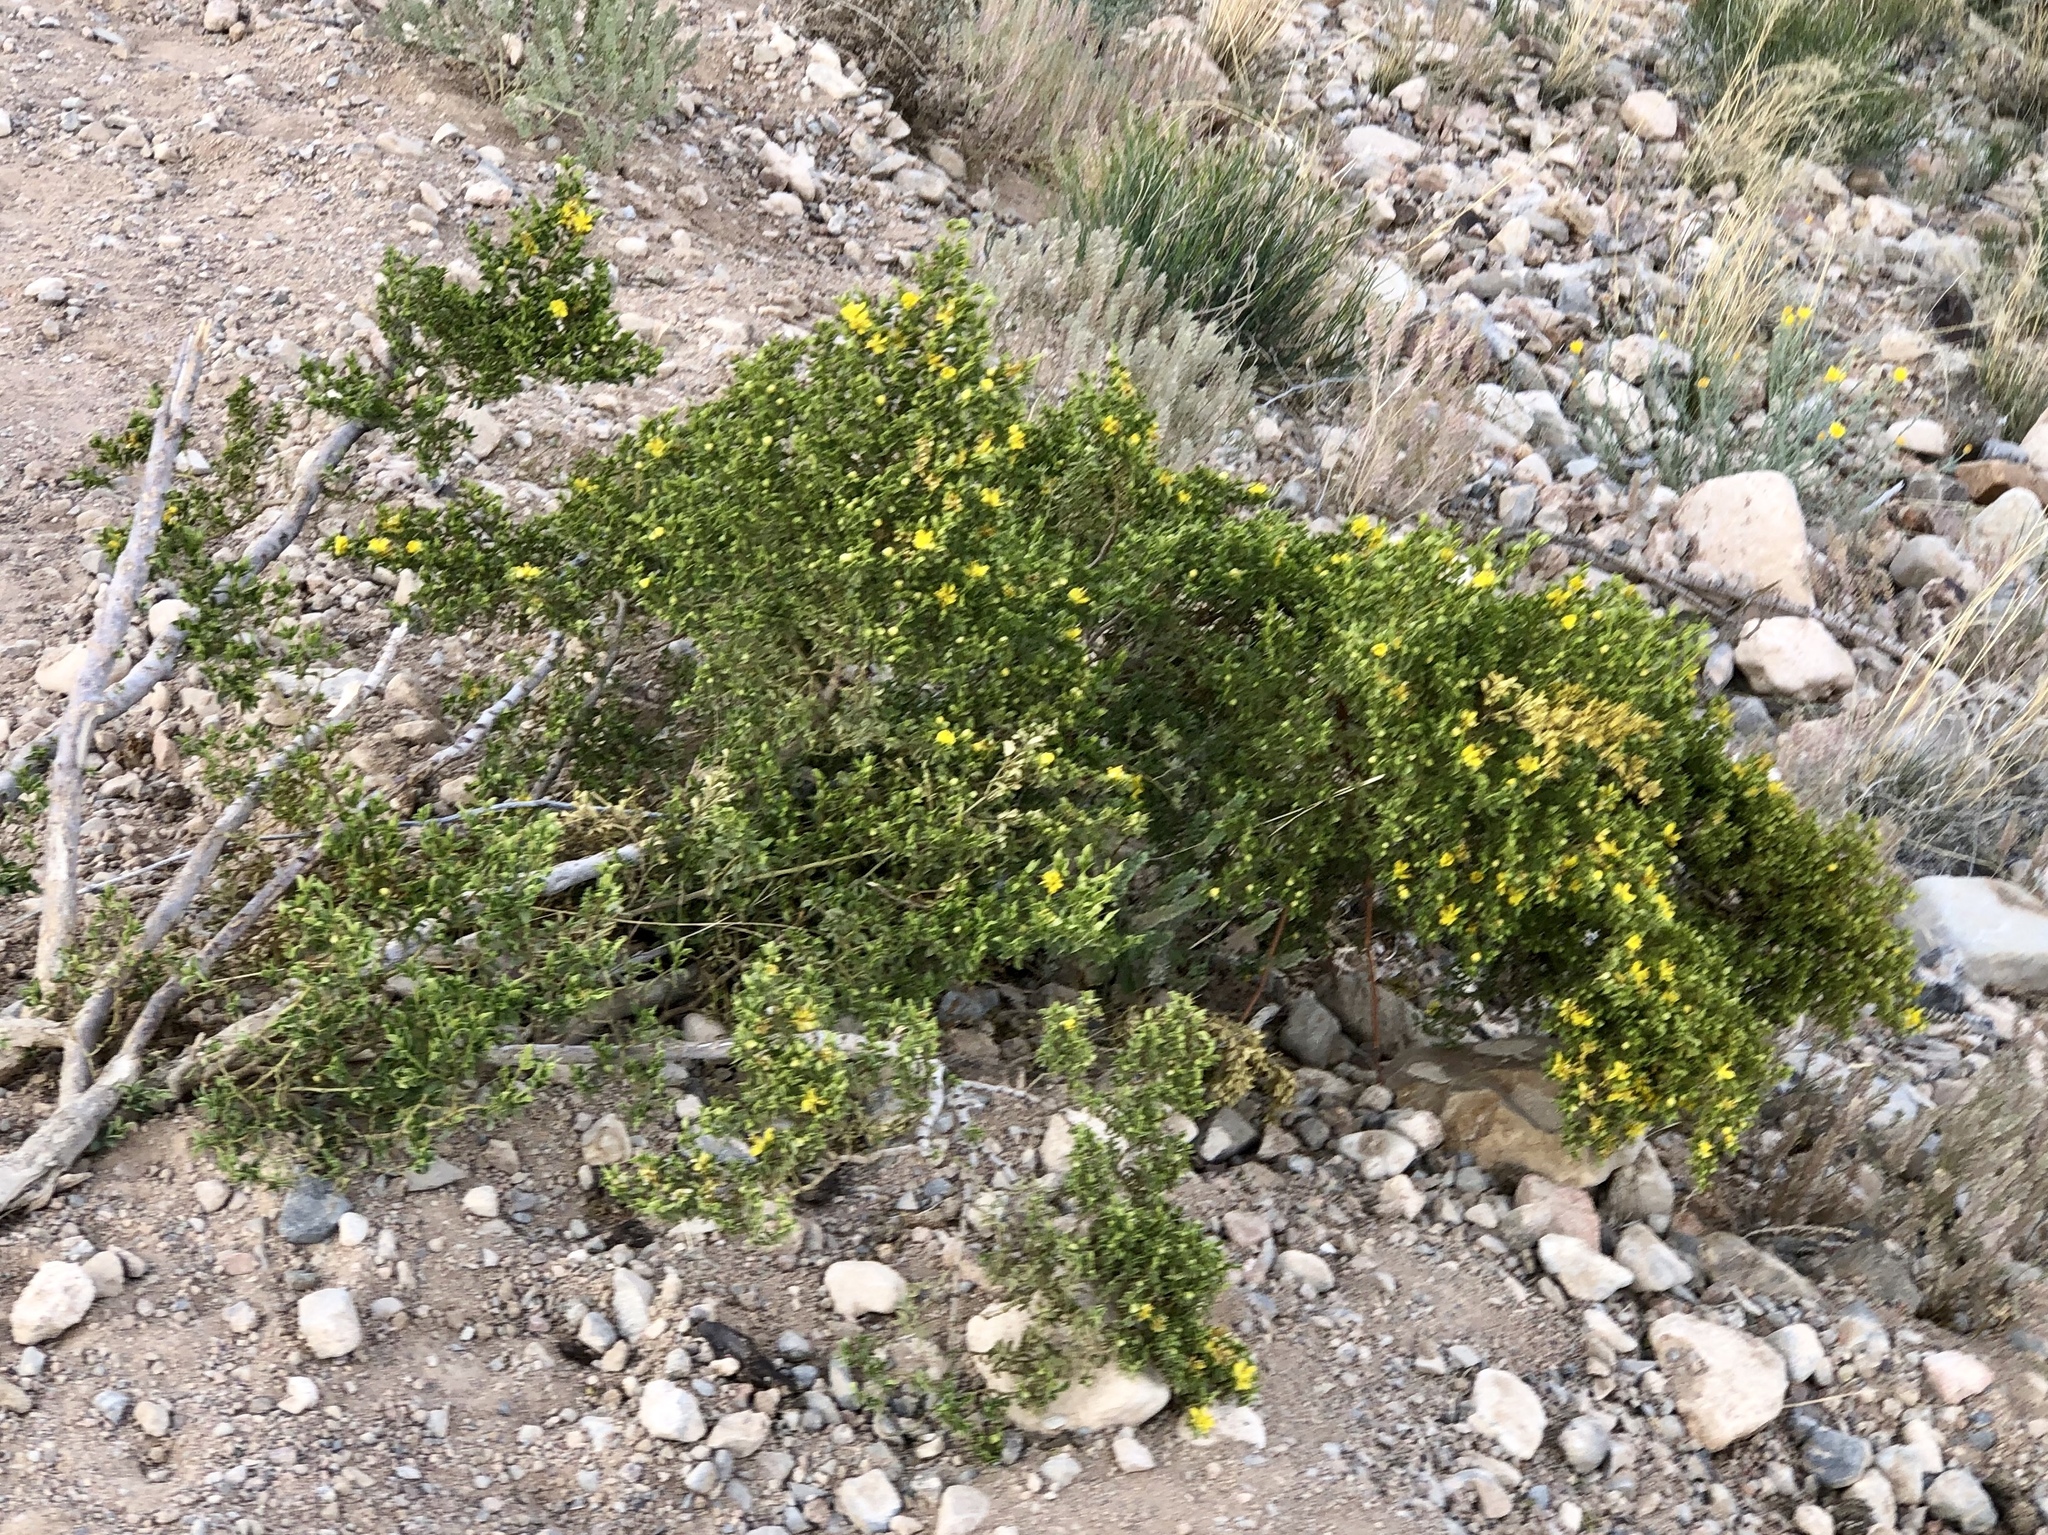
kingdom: Plantae
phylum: Tracheophyta
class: Magnoliopsida
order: Zygophyllales
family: Zygophyllaceae
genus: Larrea
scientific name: Larrea tridentata
